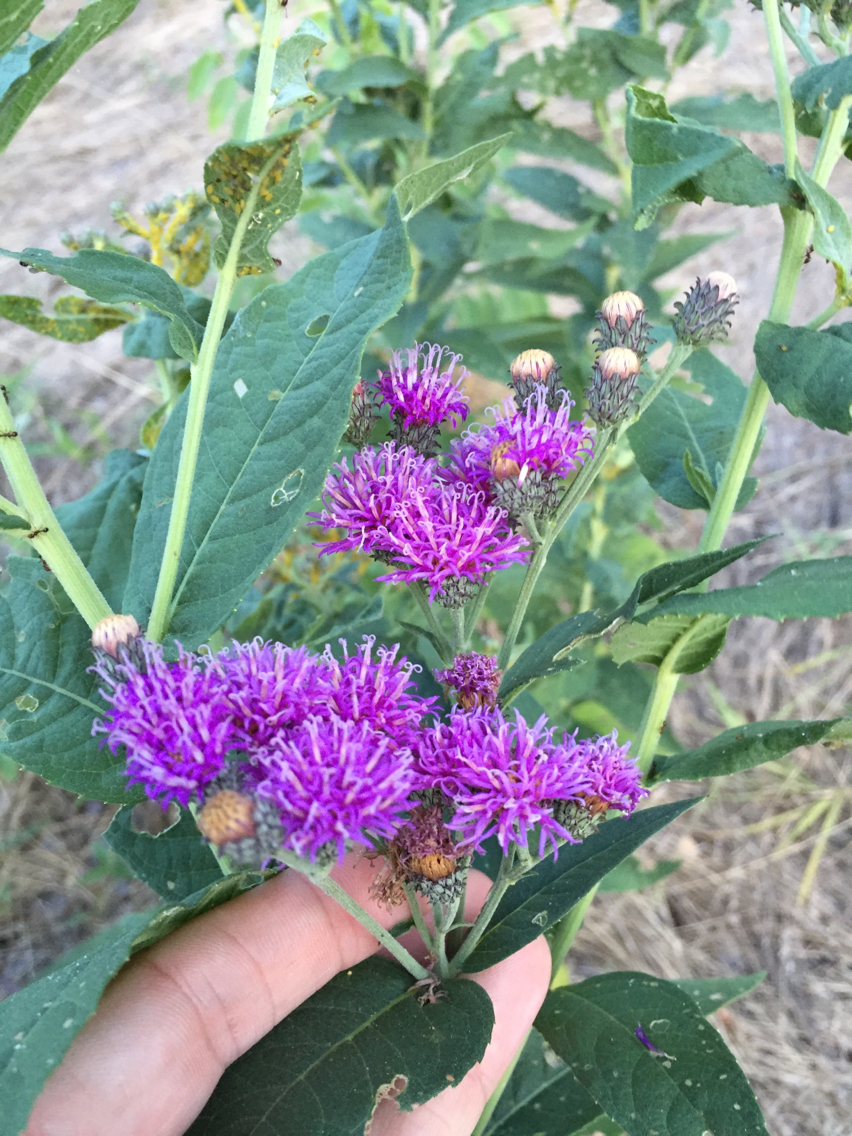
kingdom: Plantae
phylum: Tracheophyta
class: Magnoliopsida
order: Asterales
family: Asteraceae
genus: Vernonia
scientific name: Vernonia baldwinii
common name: Western ironweed
